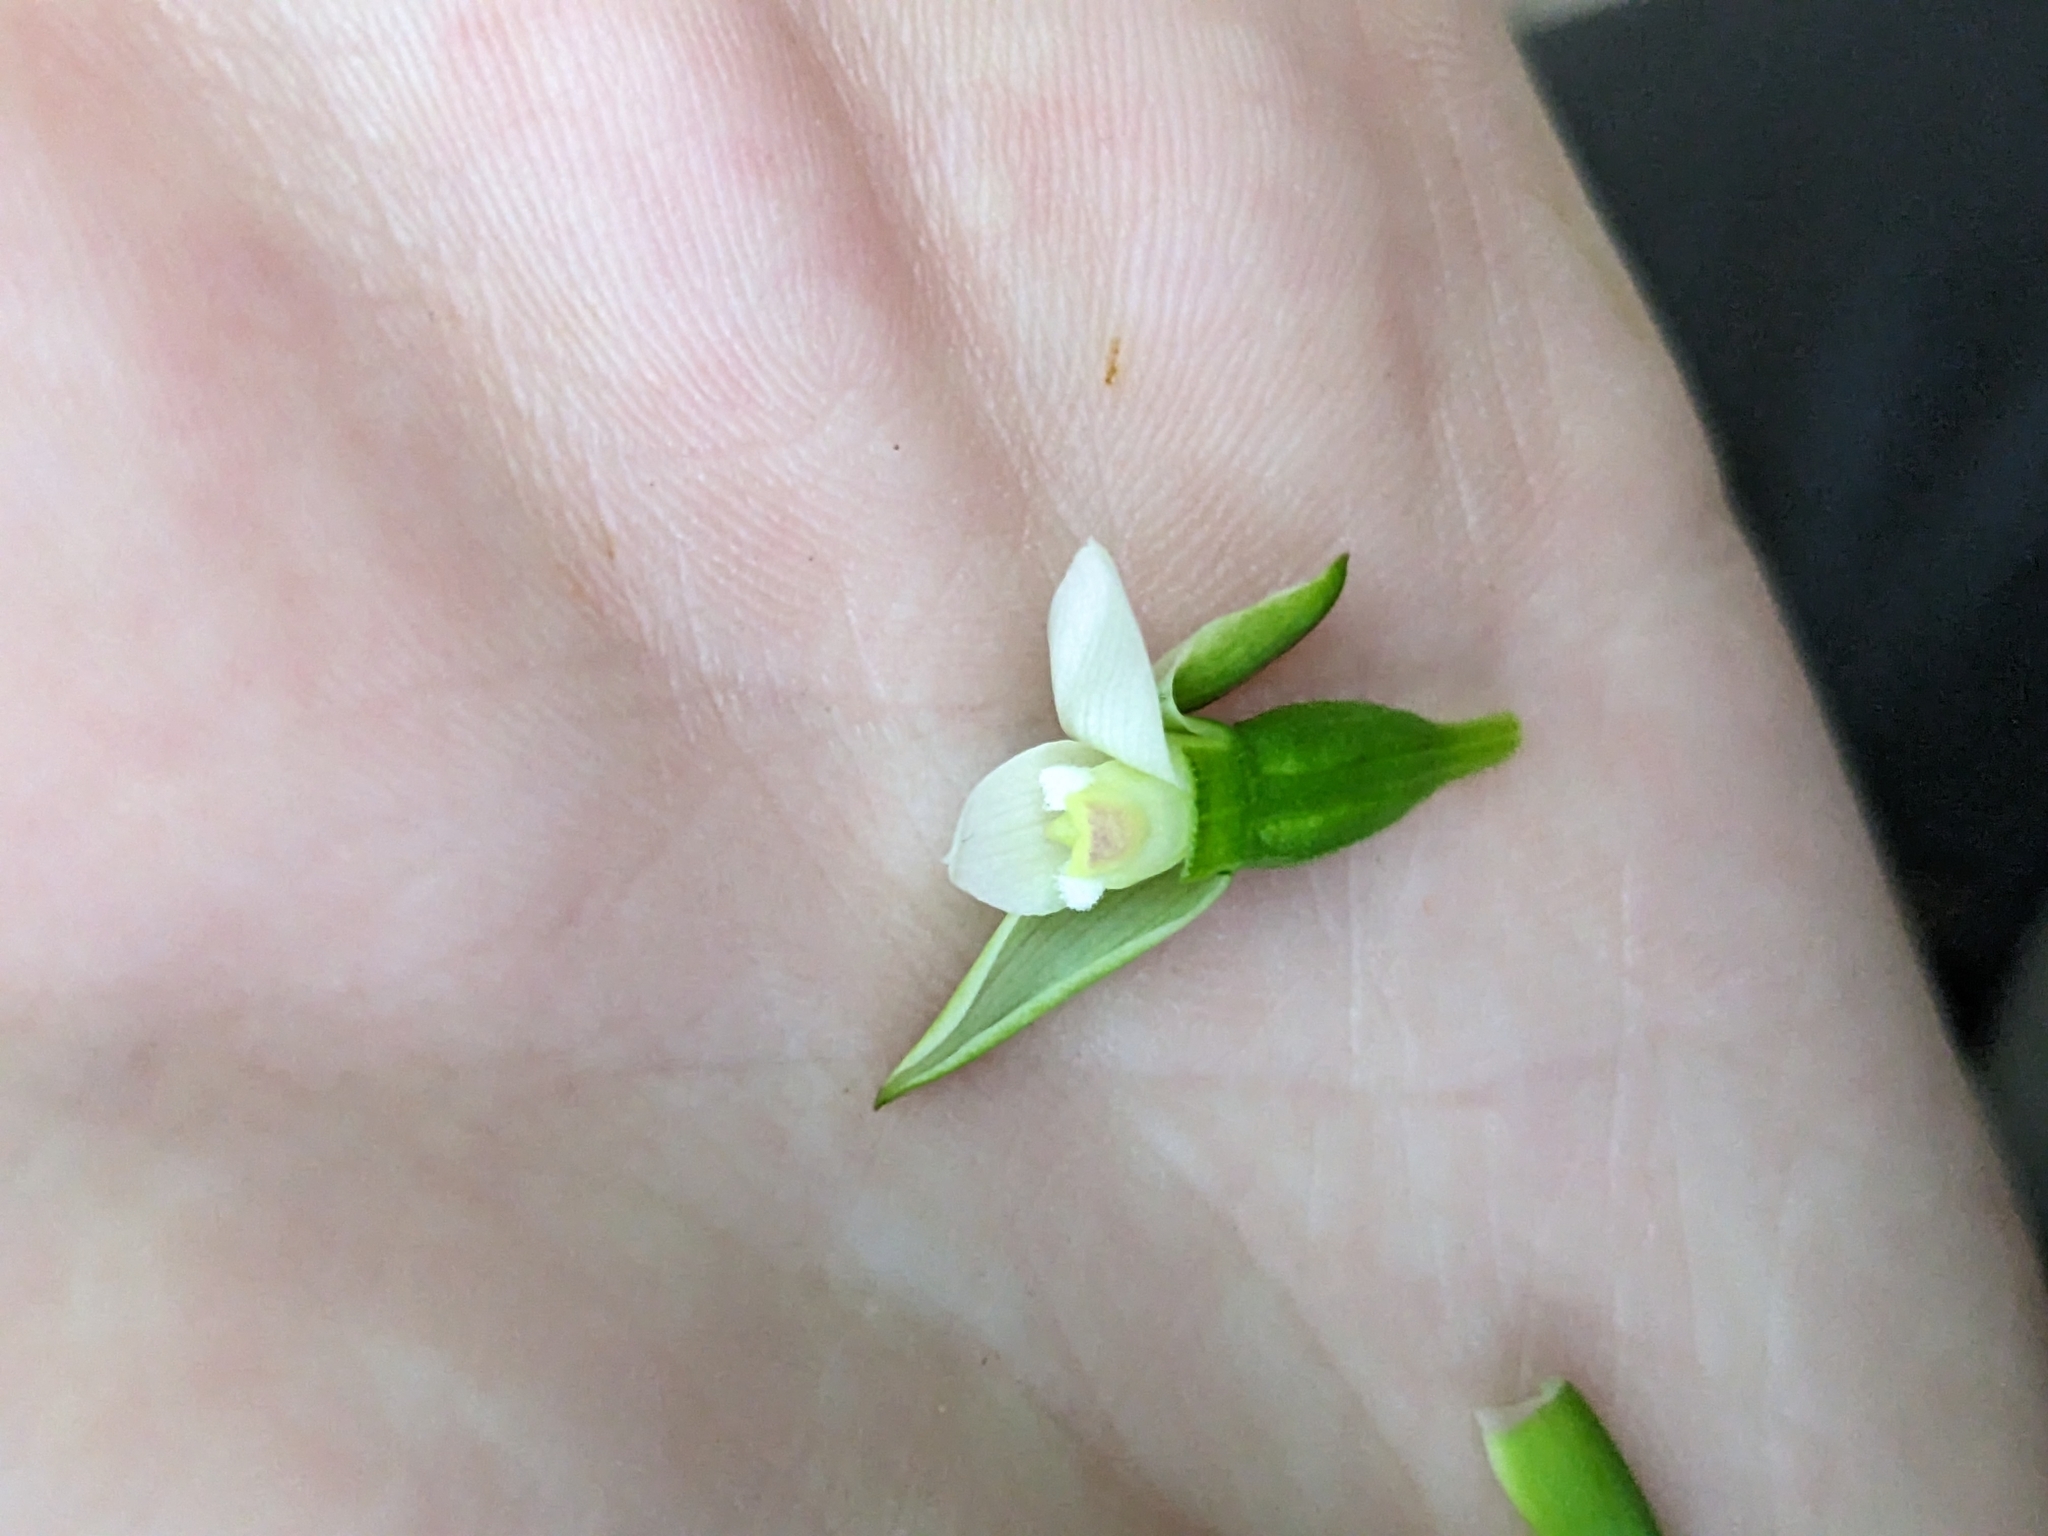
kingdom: Plantae
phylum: Tracheophyta
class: Liliopsida
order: Asparagales
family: Orchidaceae
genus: Thelymitra
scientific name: Thelymitra longifolia
